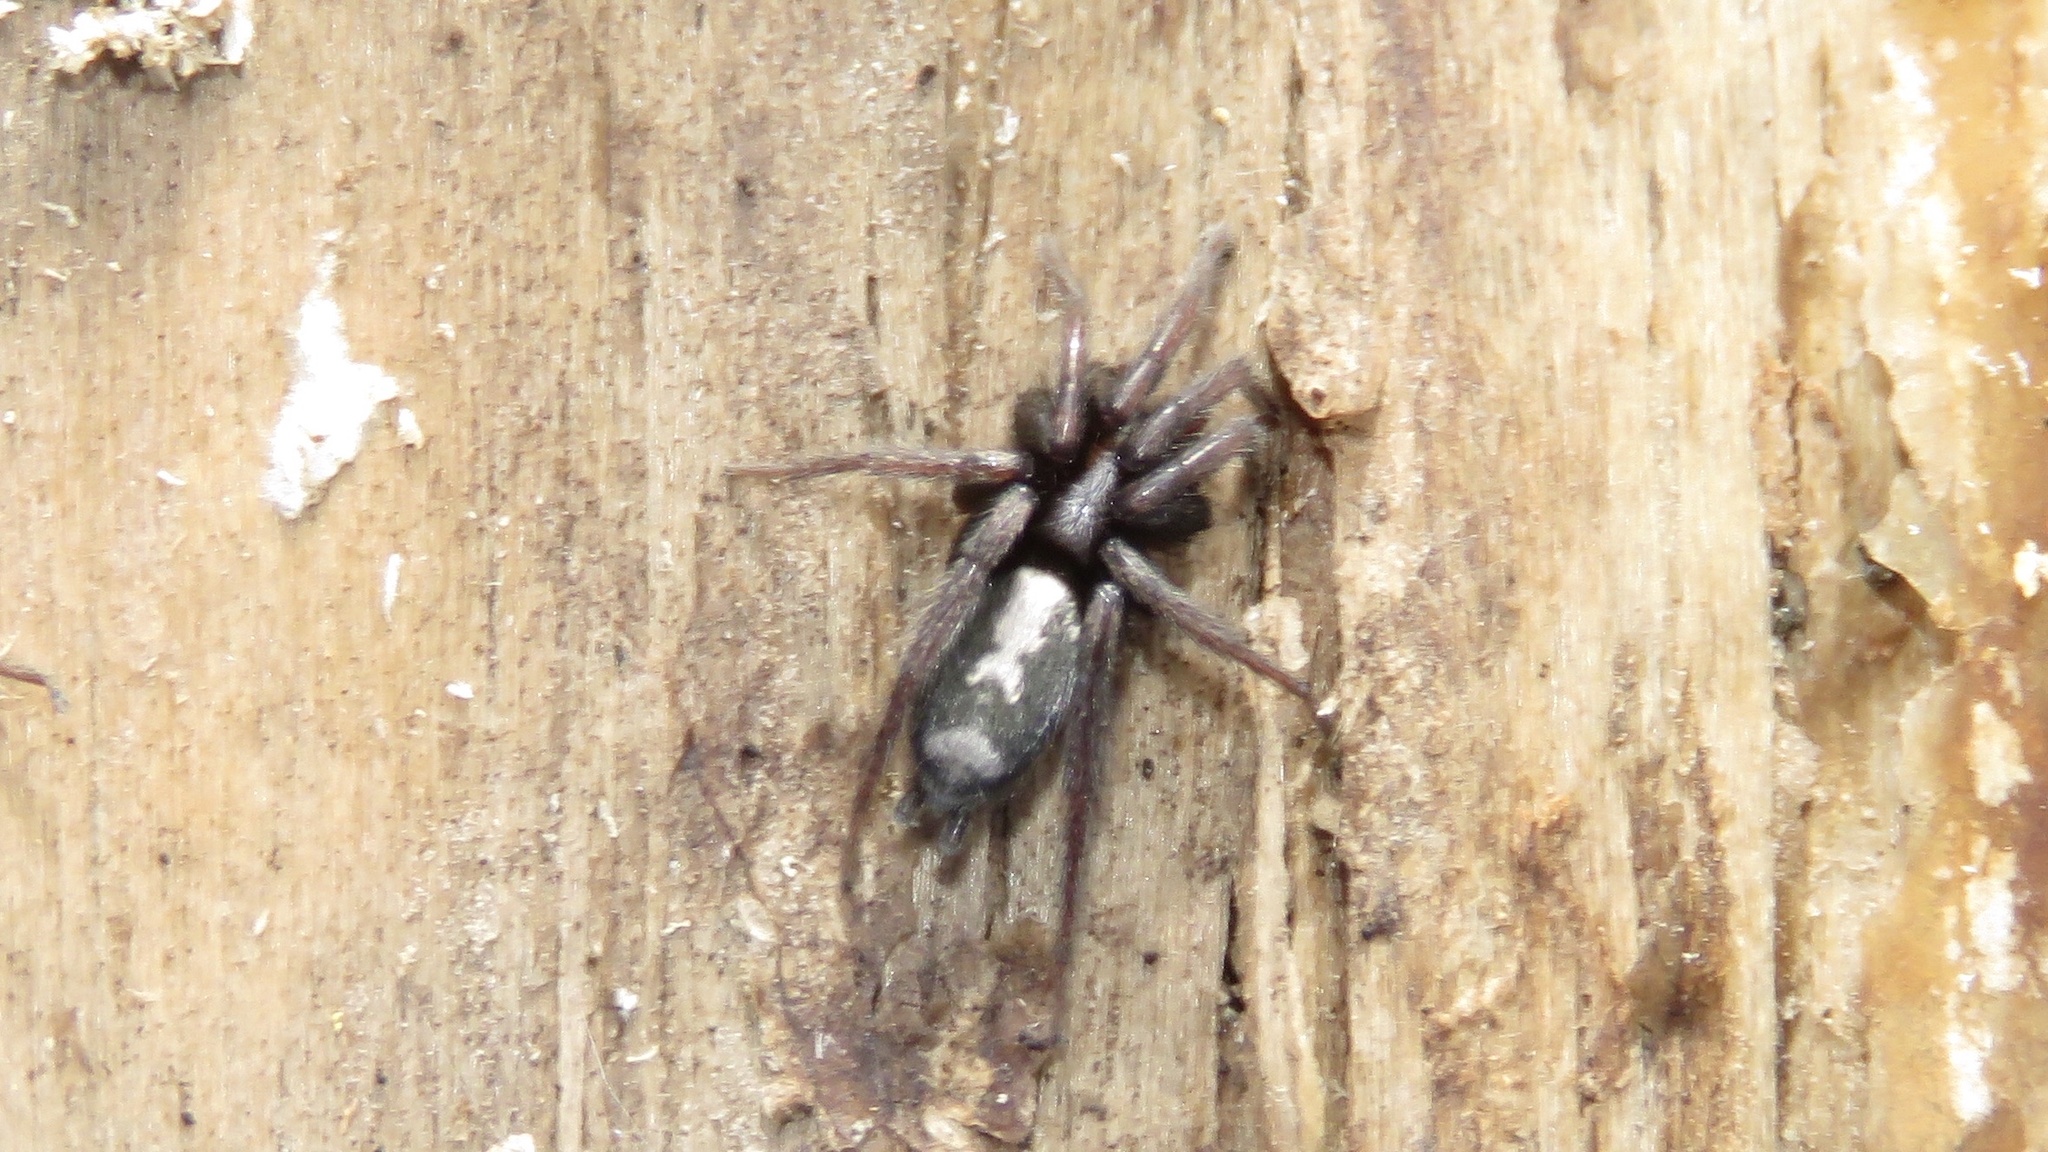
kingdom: Animalia
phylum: Arthropoda
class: Arachnida
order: Araneae
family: Gnaphosidae
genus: Herpyllus
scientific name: Herpyllus ecclesiasticus
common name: Eastern parson spider
